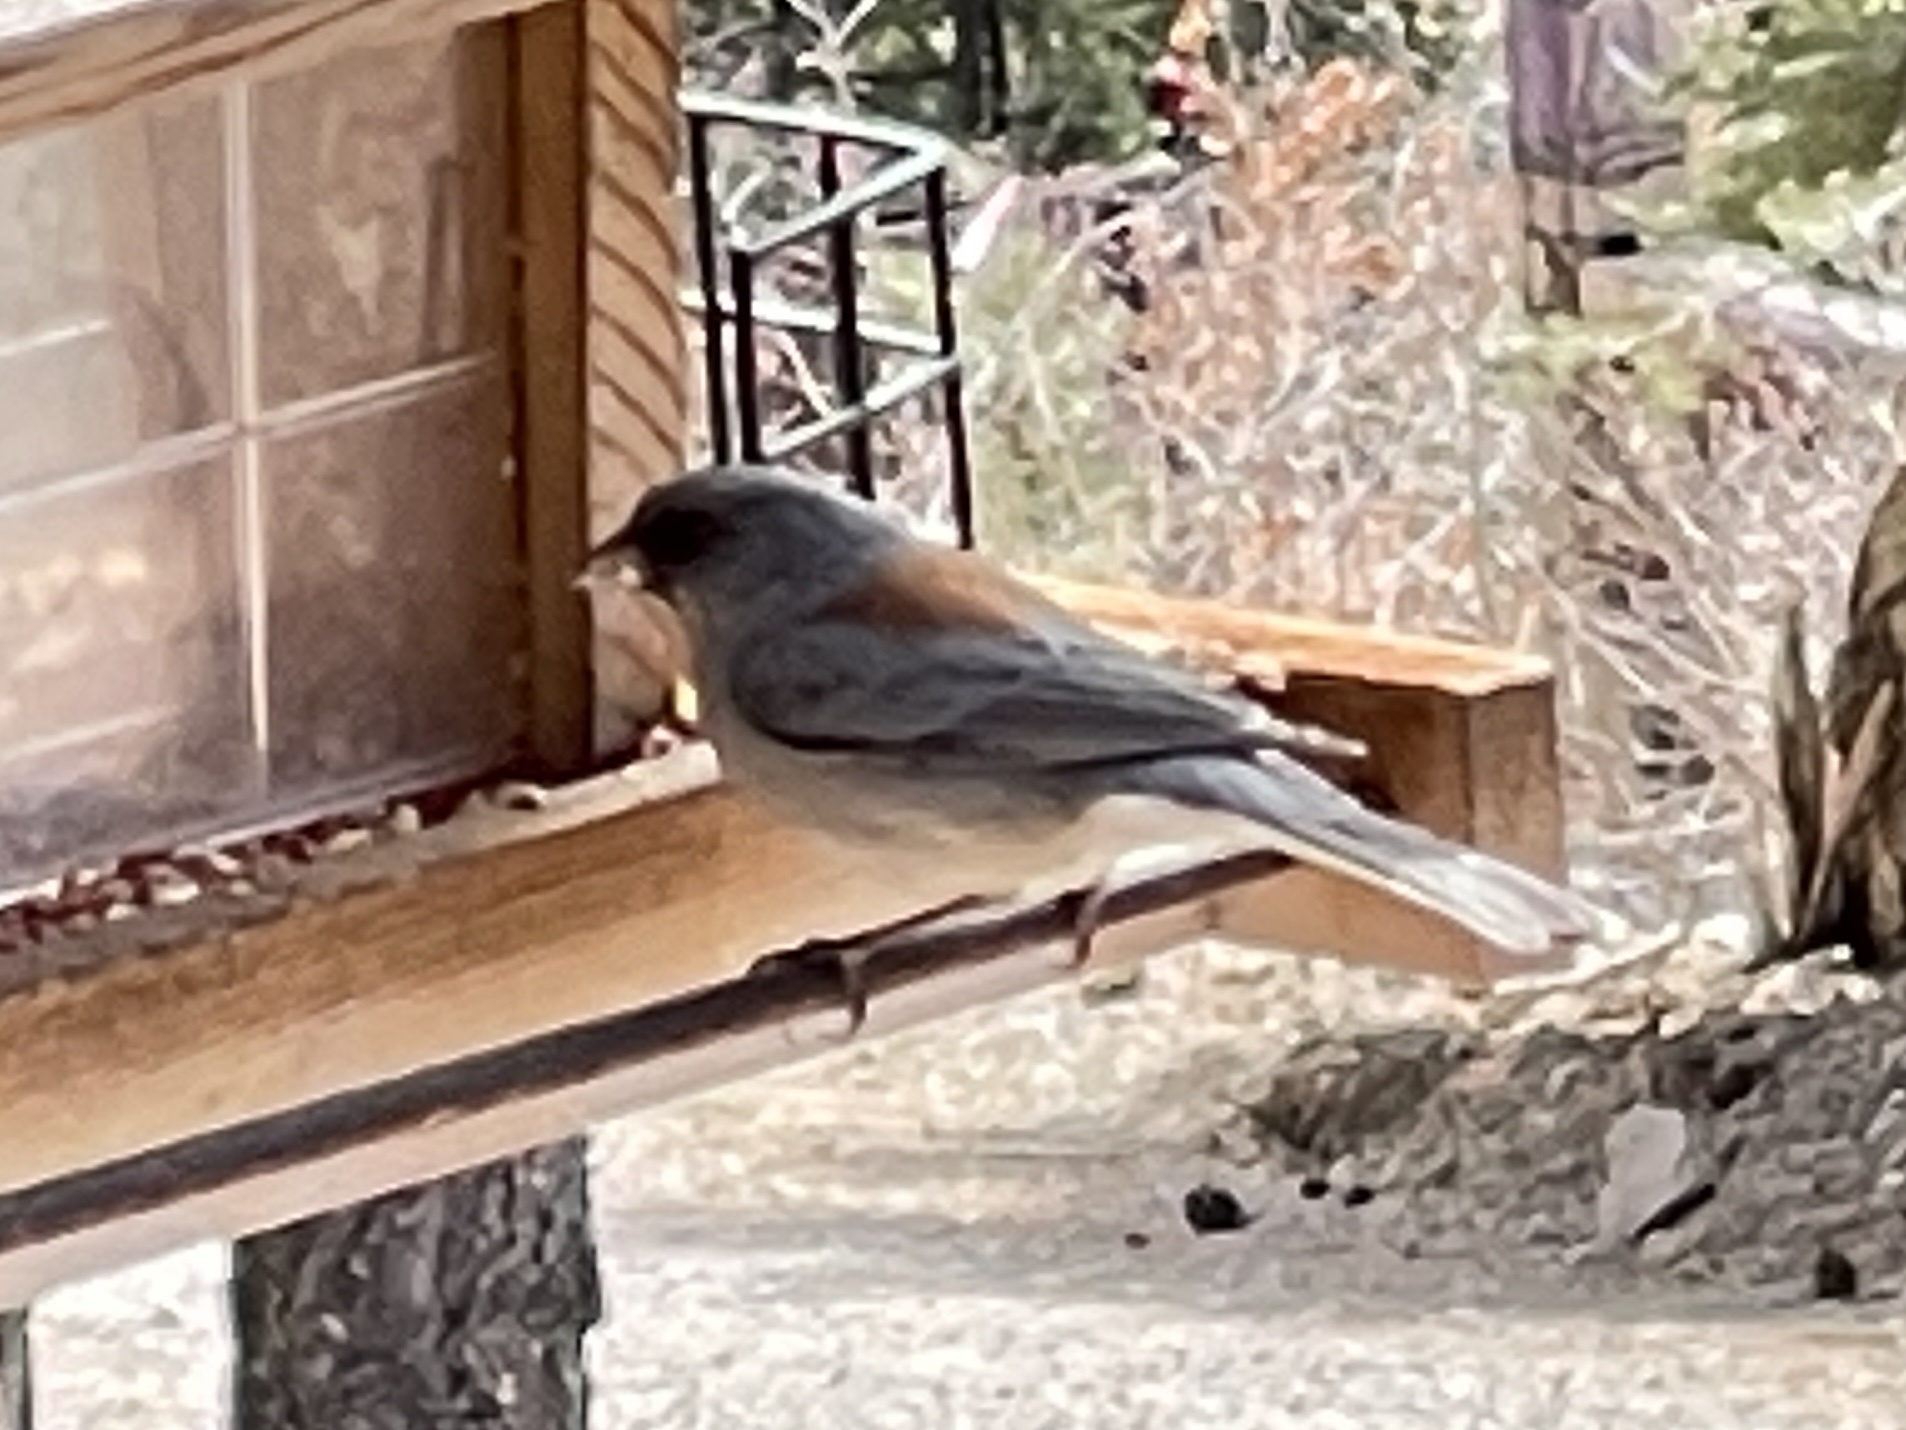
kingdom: Animalia
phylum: Chordata
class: Aves
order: Passeriformes
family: Passerellidae
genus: Junco
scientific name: Junco hyemalis
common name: Dark-eyed junco
